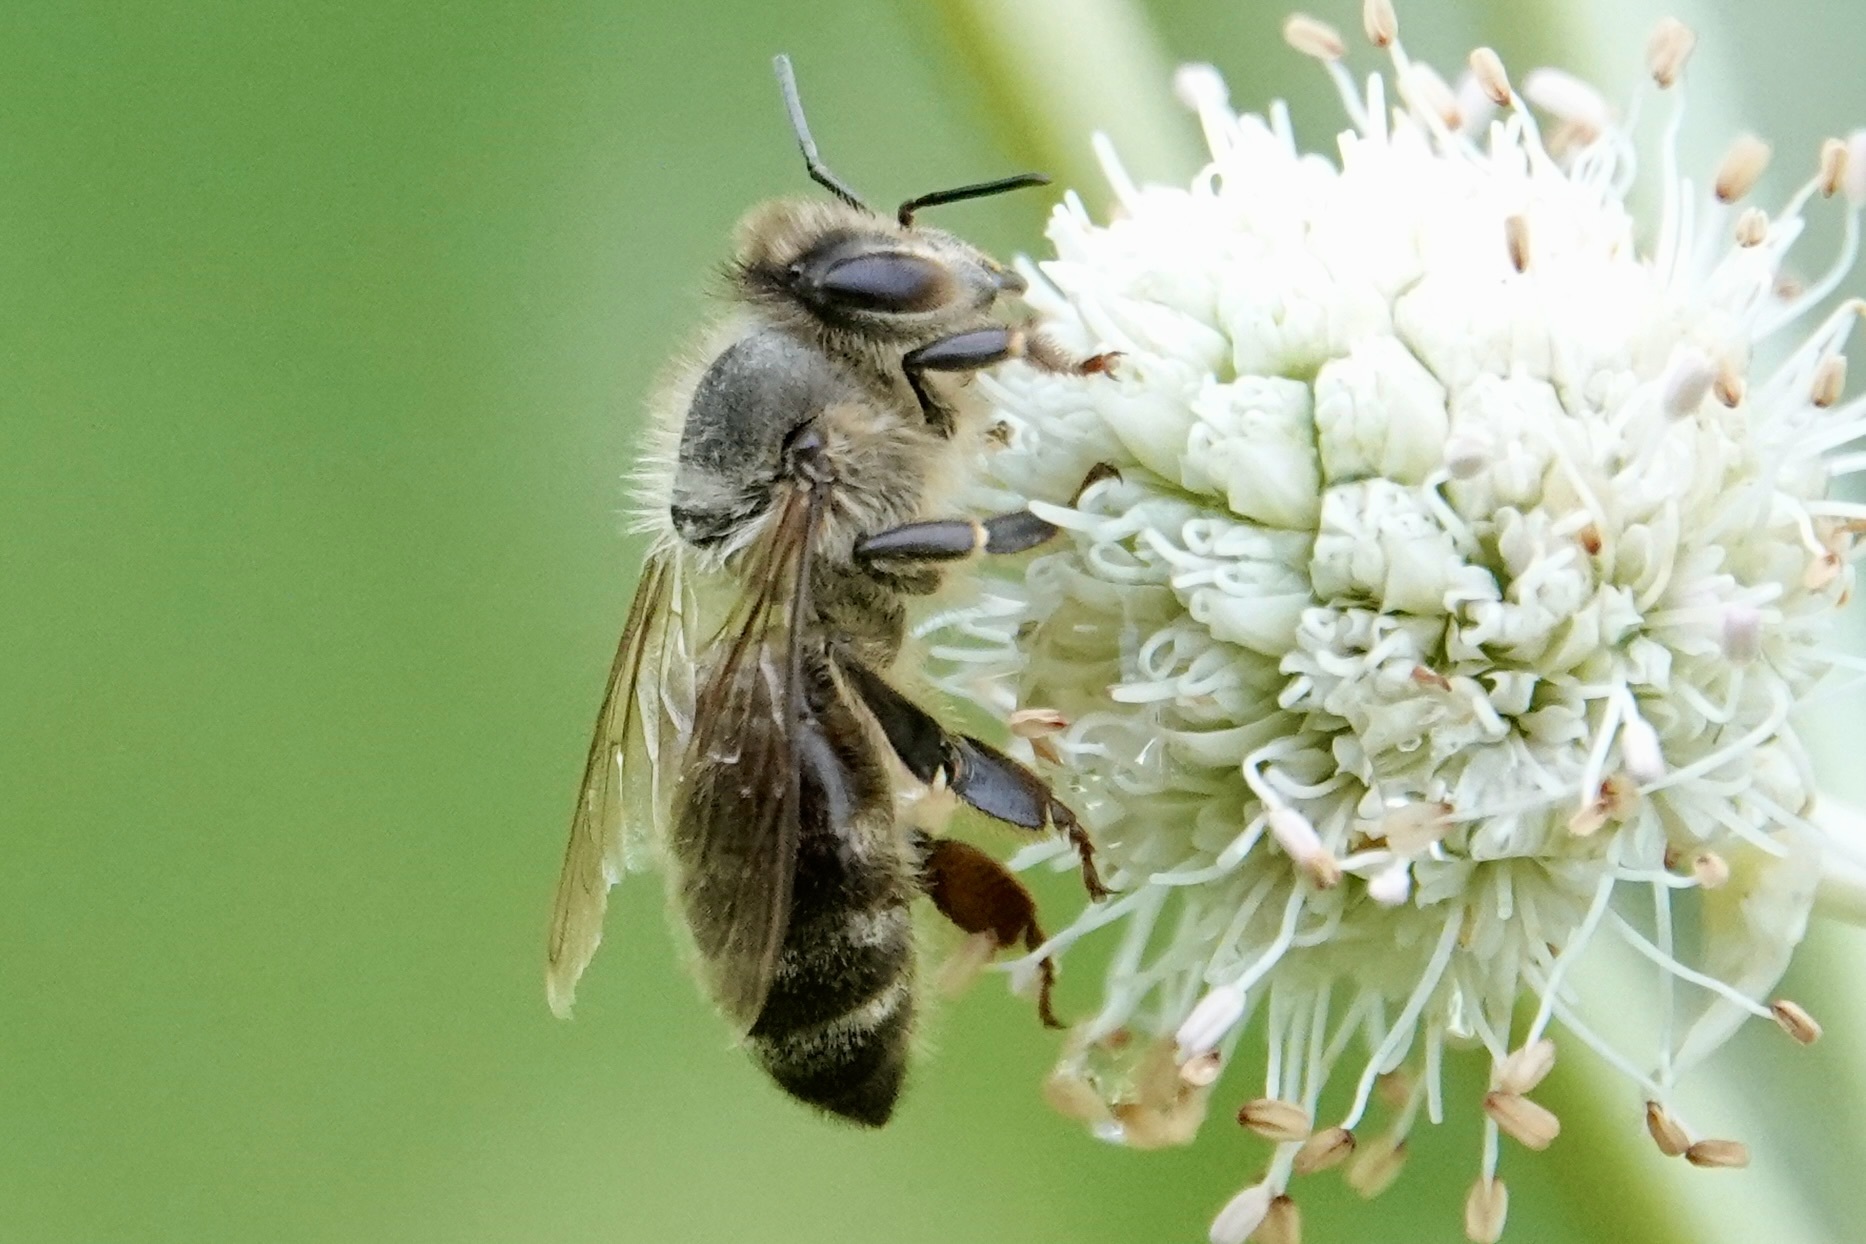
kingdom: Animalia
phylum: Arthropoda
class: Insecta
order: Hymenoptera
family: Apidae
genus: Apis
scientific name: Apis mellifera
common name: Honey bee
